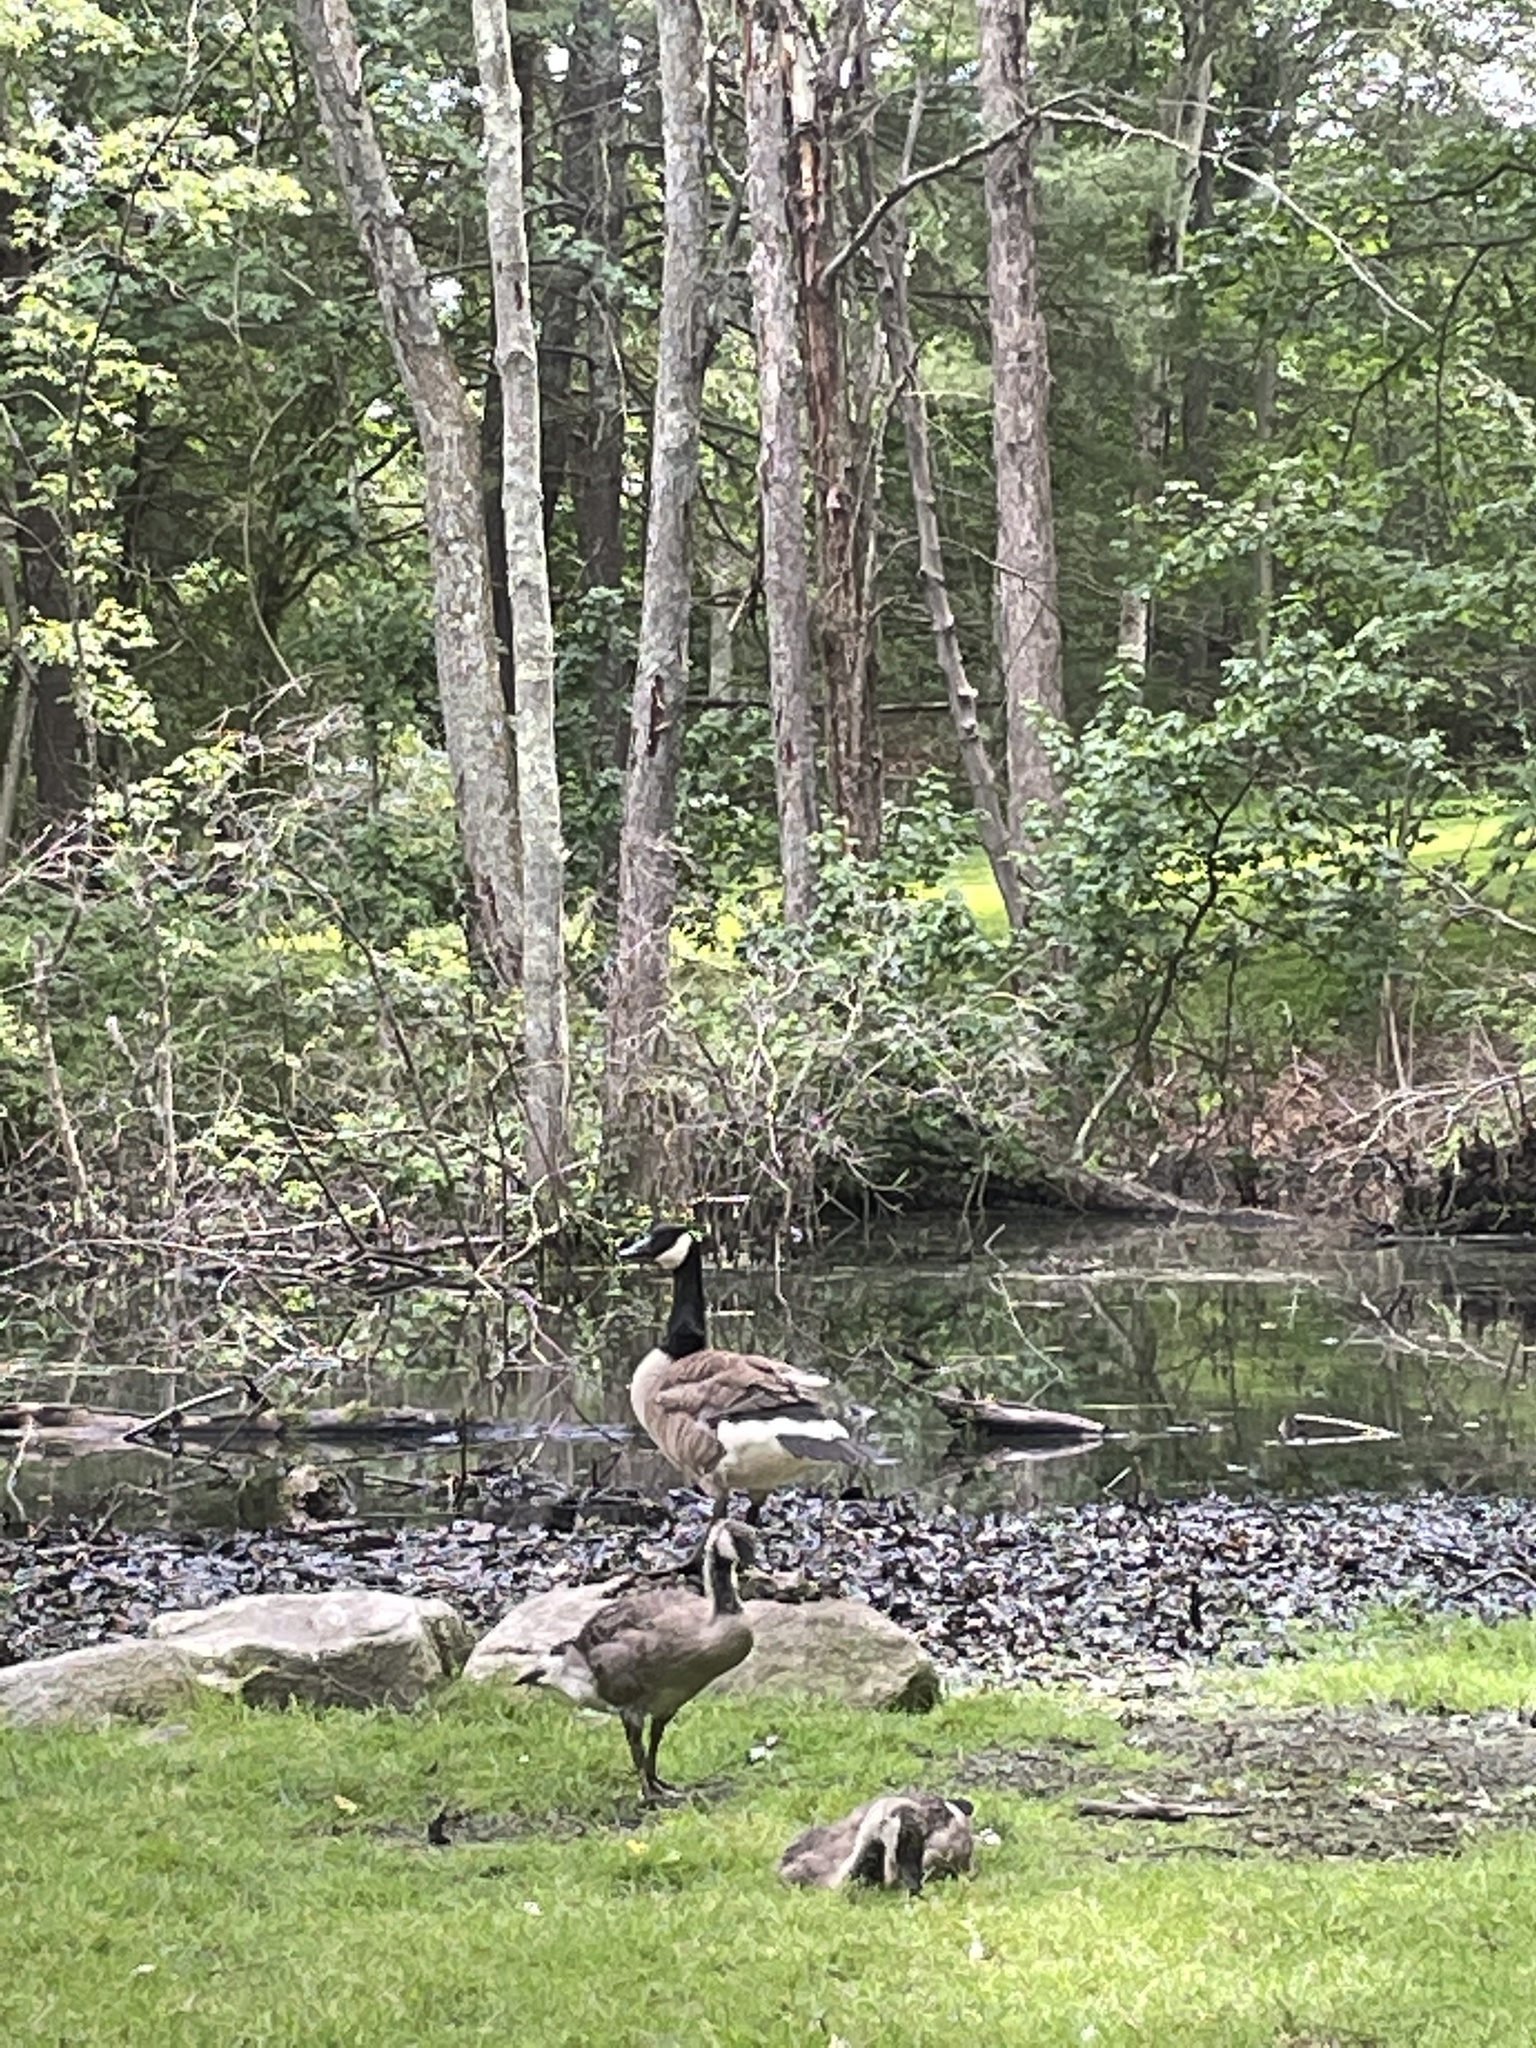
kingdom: Animalia
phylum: Chordata
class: Aves
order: Anseriformes
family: Anatidae
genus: Branta
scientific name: Branta canadensis
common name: Canada goose
